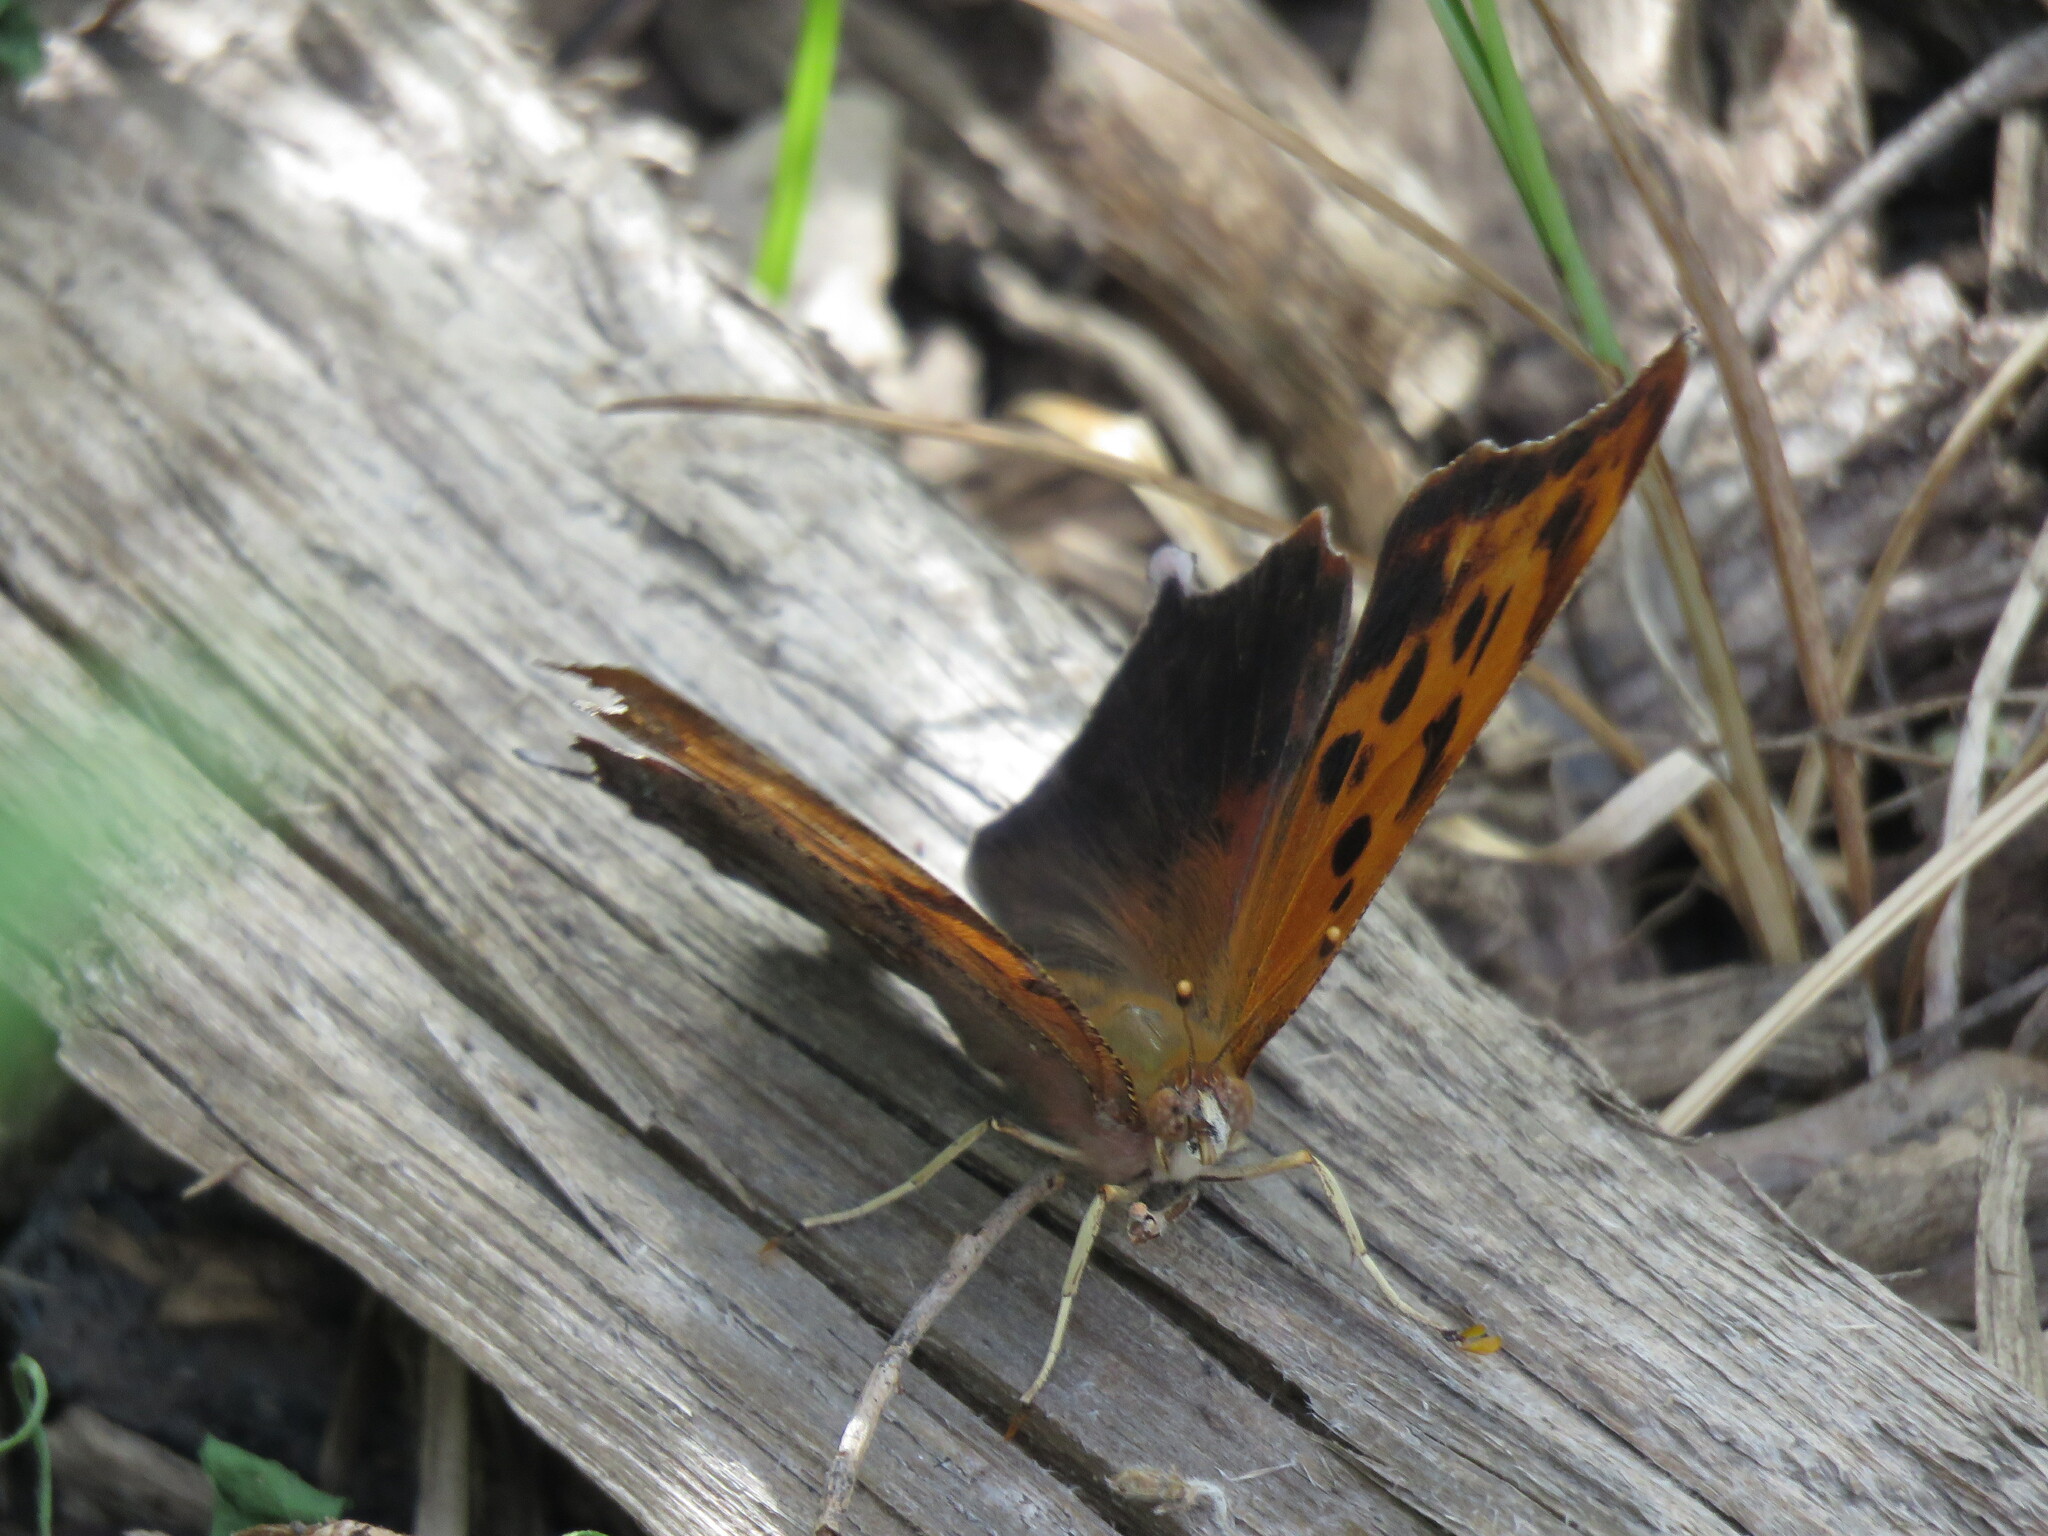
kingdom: Animalia
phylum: Arthropoda
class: Insecta
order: Lepidoptera
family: Nymphalidae
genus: Polygonia
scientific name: Polygonia interrogationis
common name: Question mark
